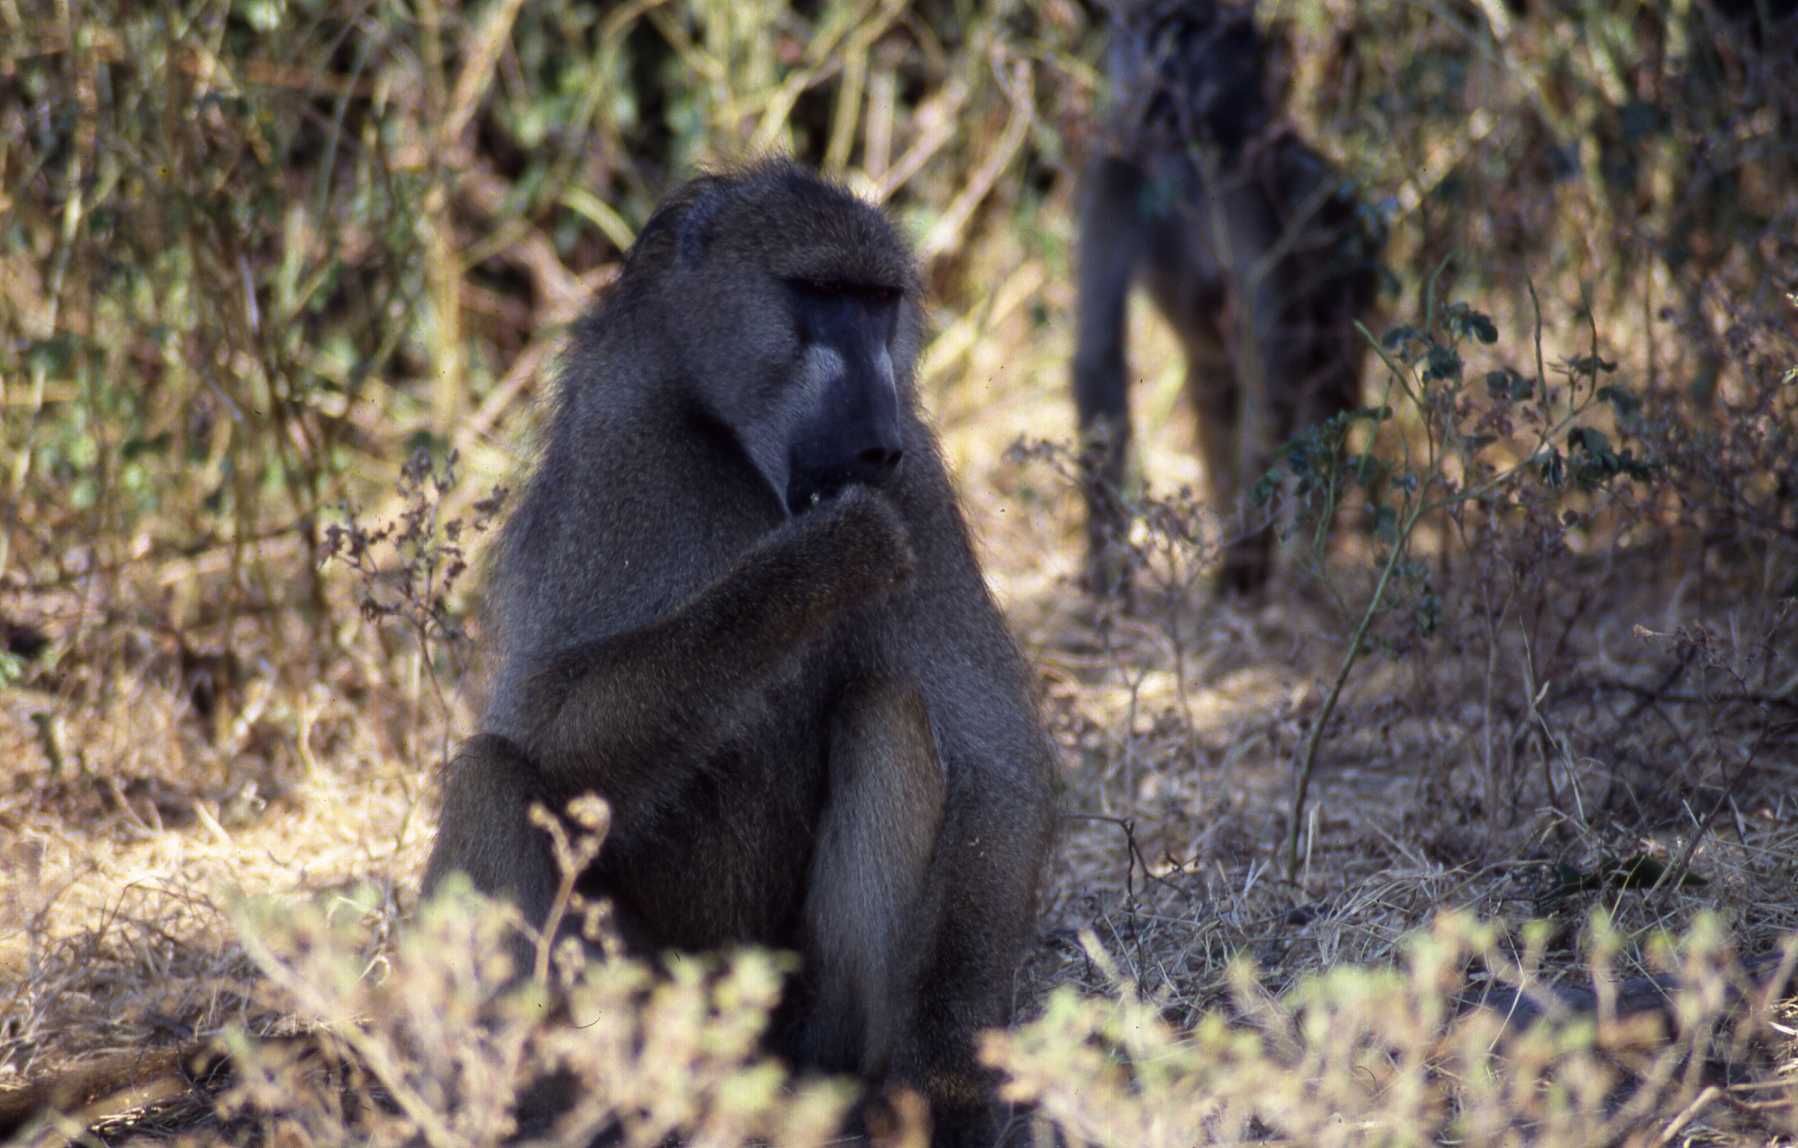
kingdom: Animalia
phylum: Chordata
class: Mammalia
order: Primates
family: Cercopithecidae
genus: Papio
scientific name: Papio ursinus
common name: Chacma baboon
